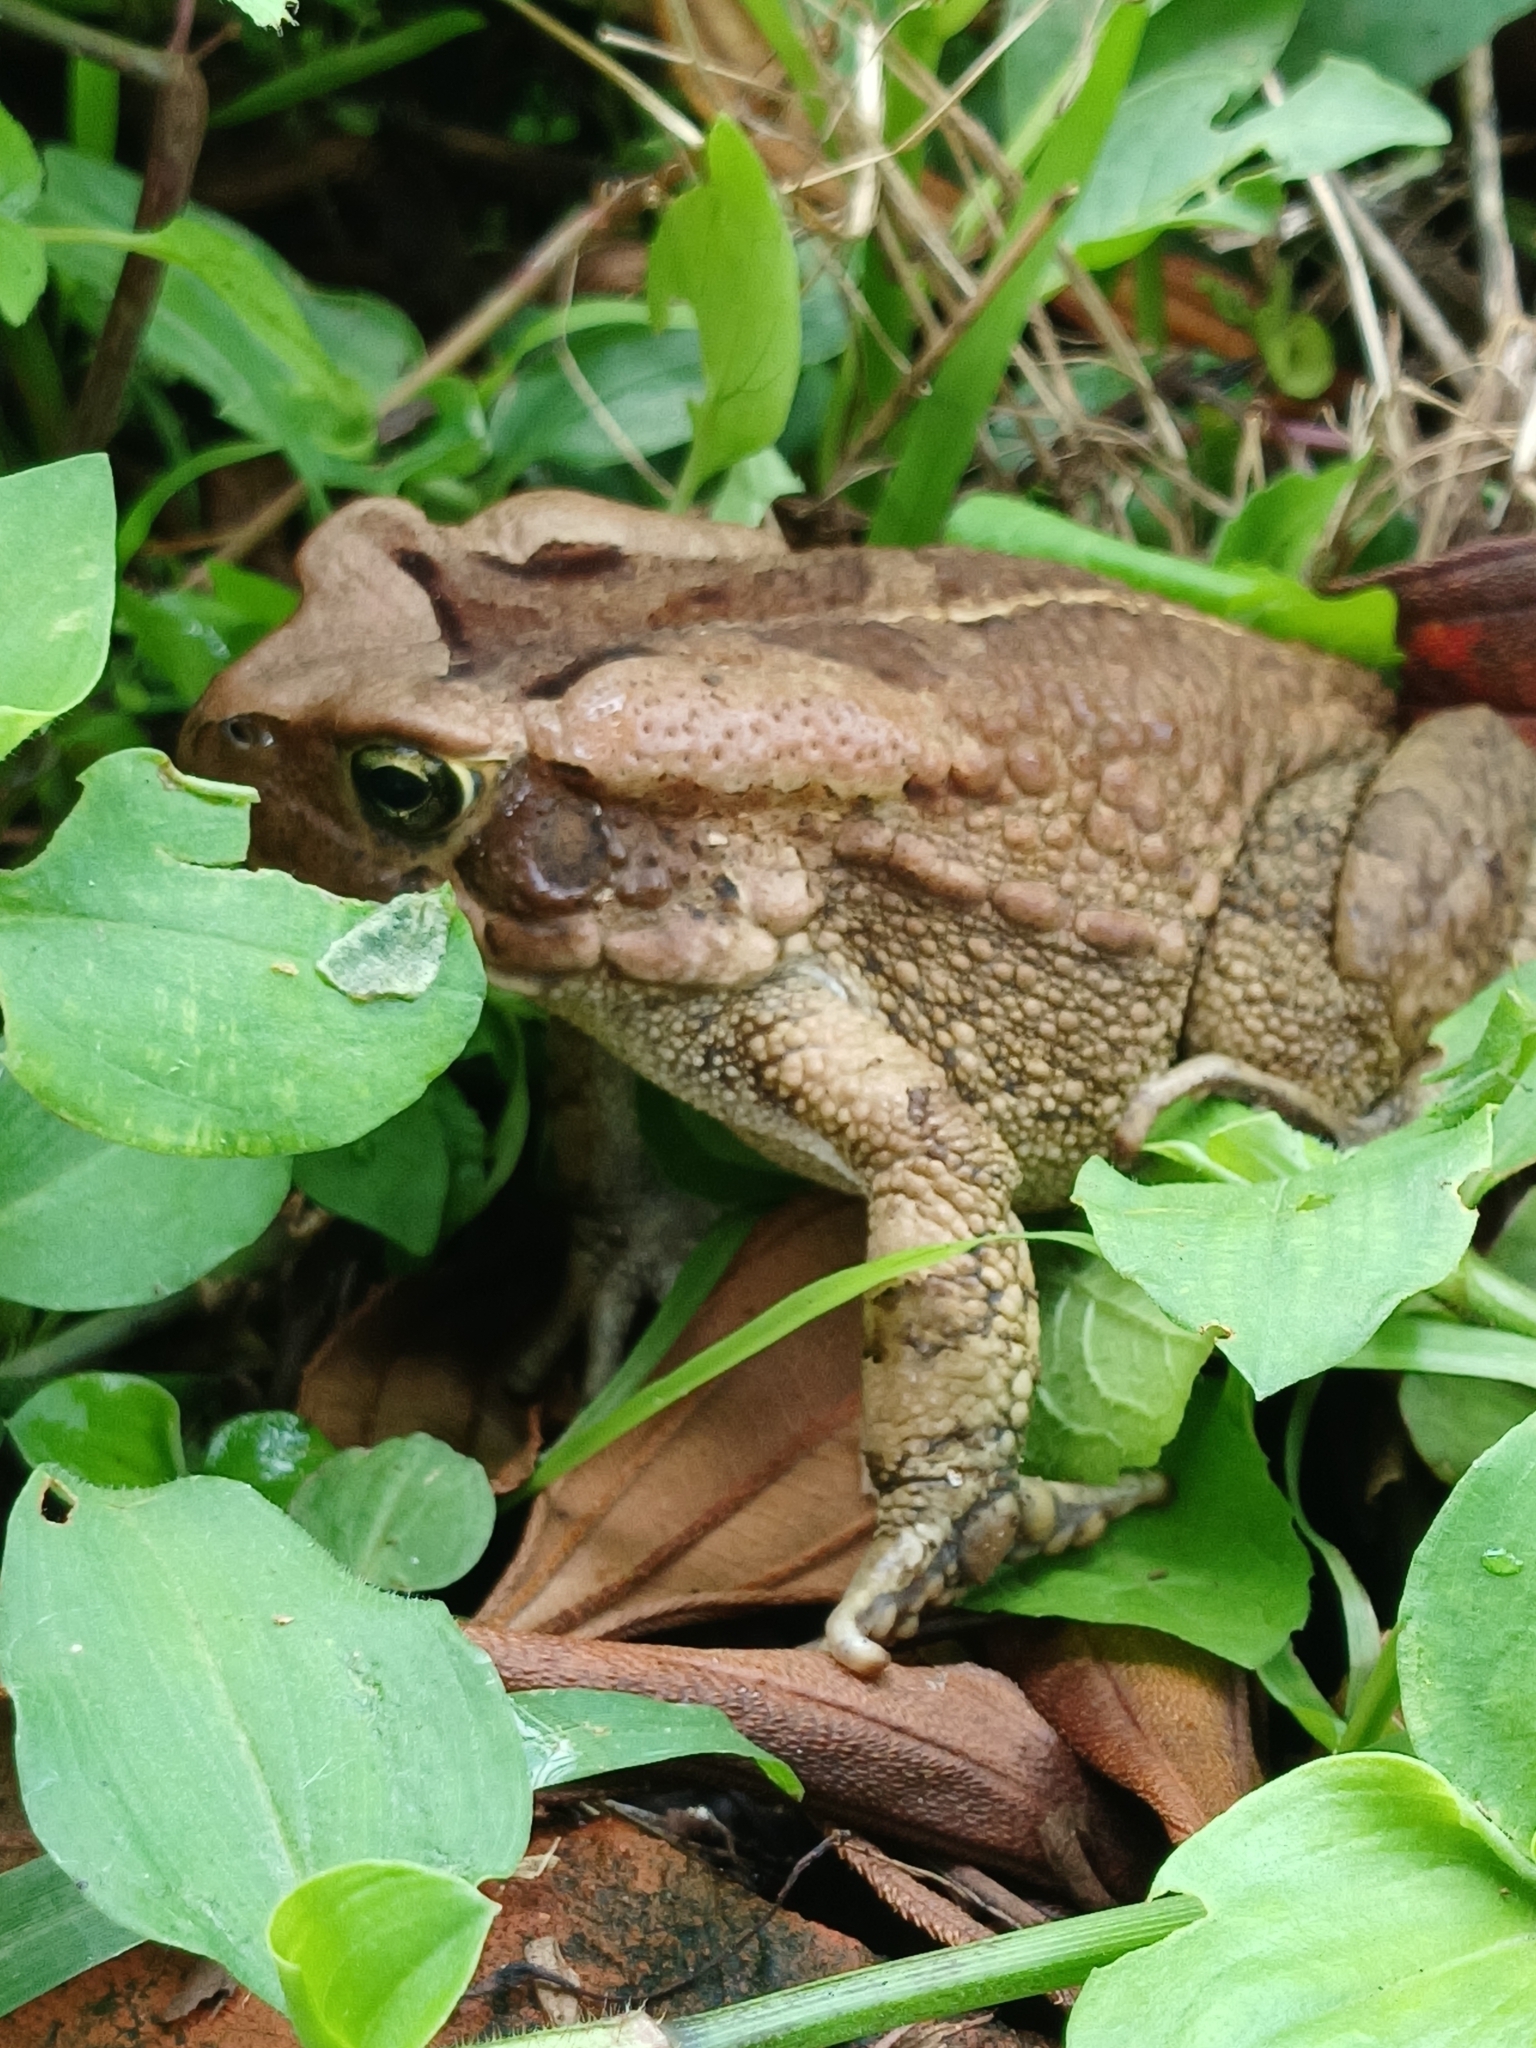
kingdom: Animalia
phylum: Chordata
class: Amphibia
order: Anura
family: Bufonidae
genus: Sclerophrys
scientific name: Sclerophrys capensis
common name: Ranger’s toad
